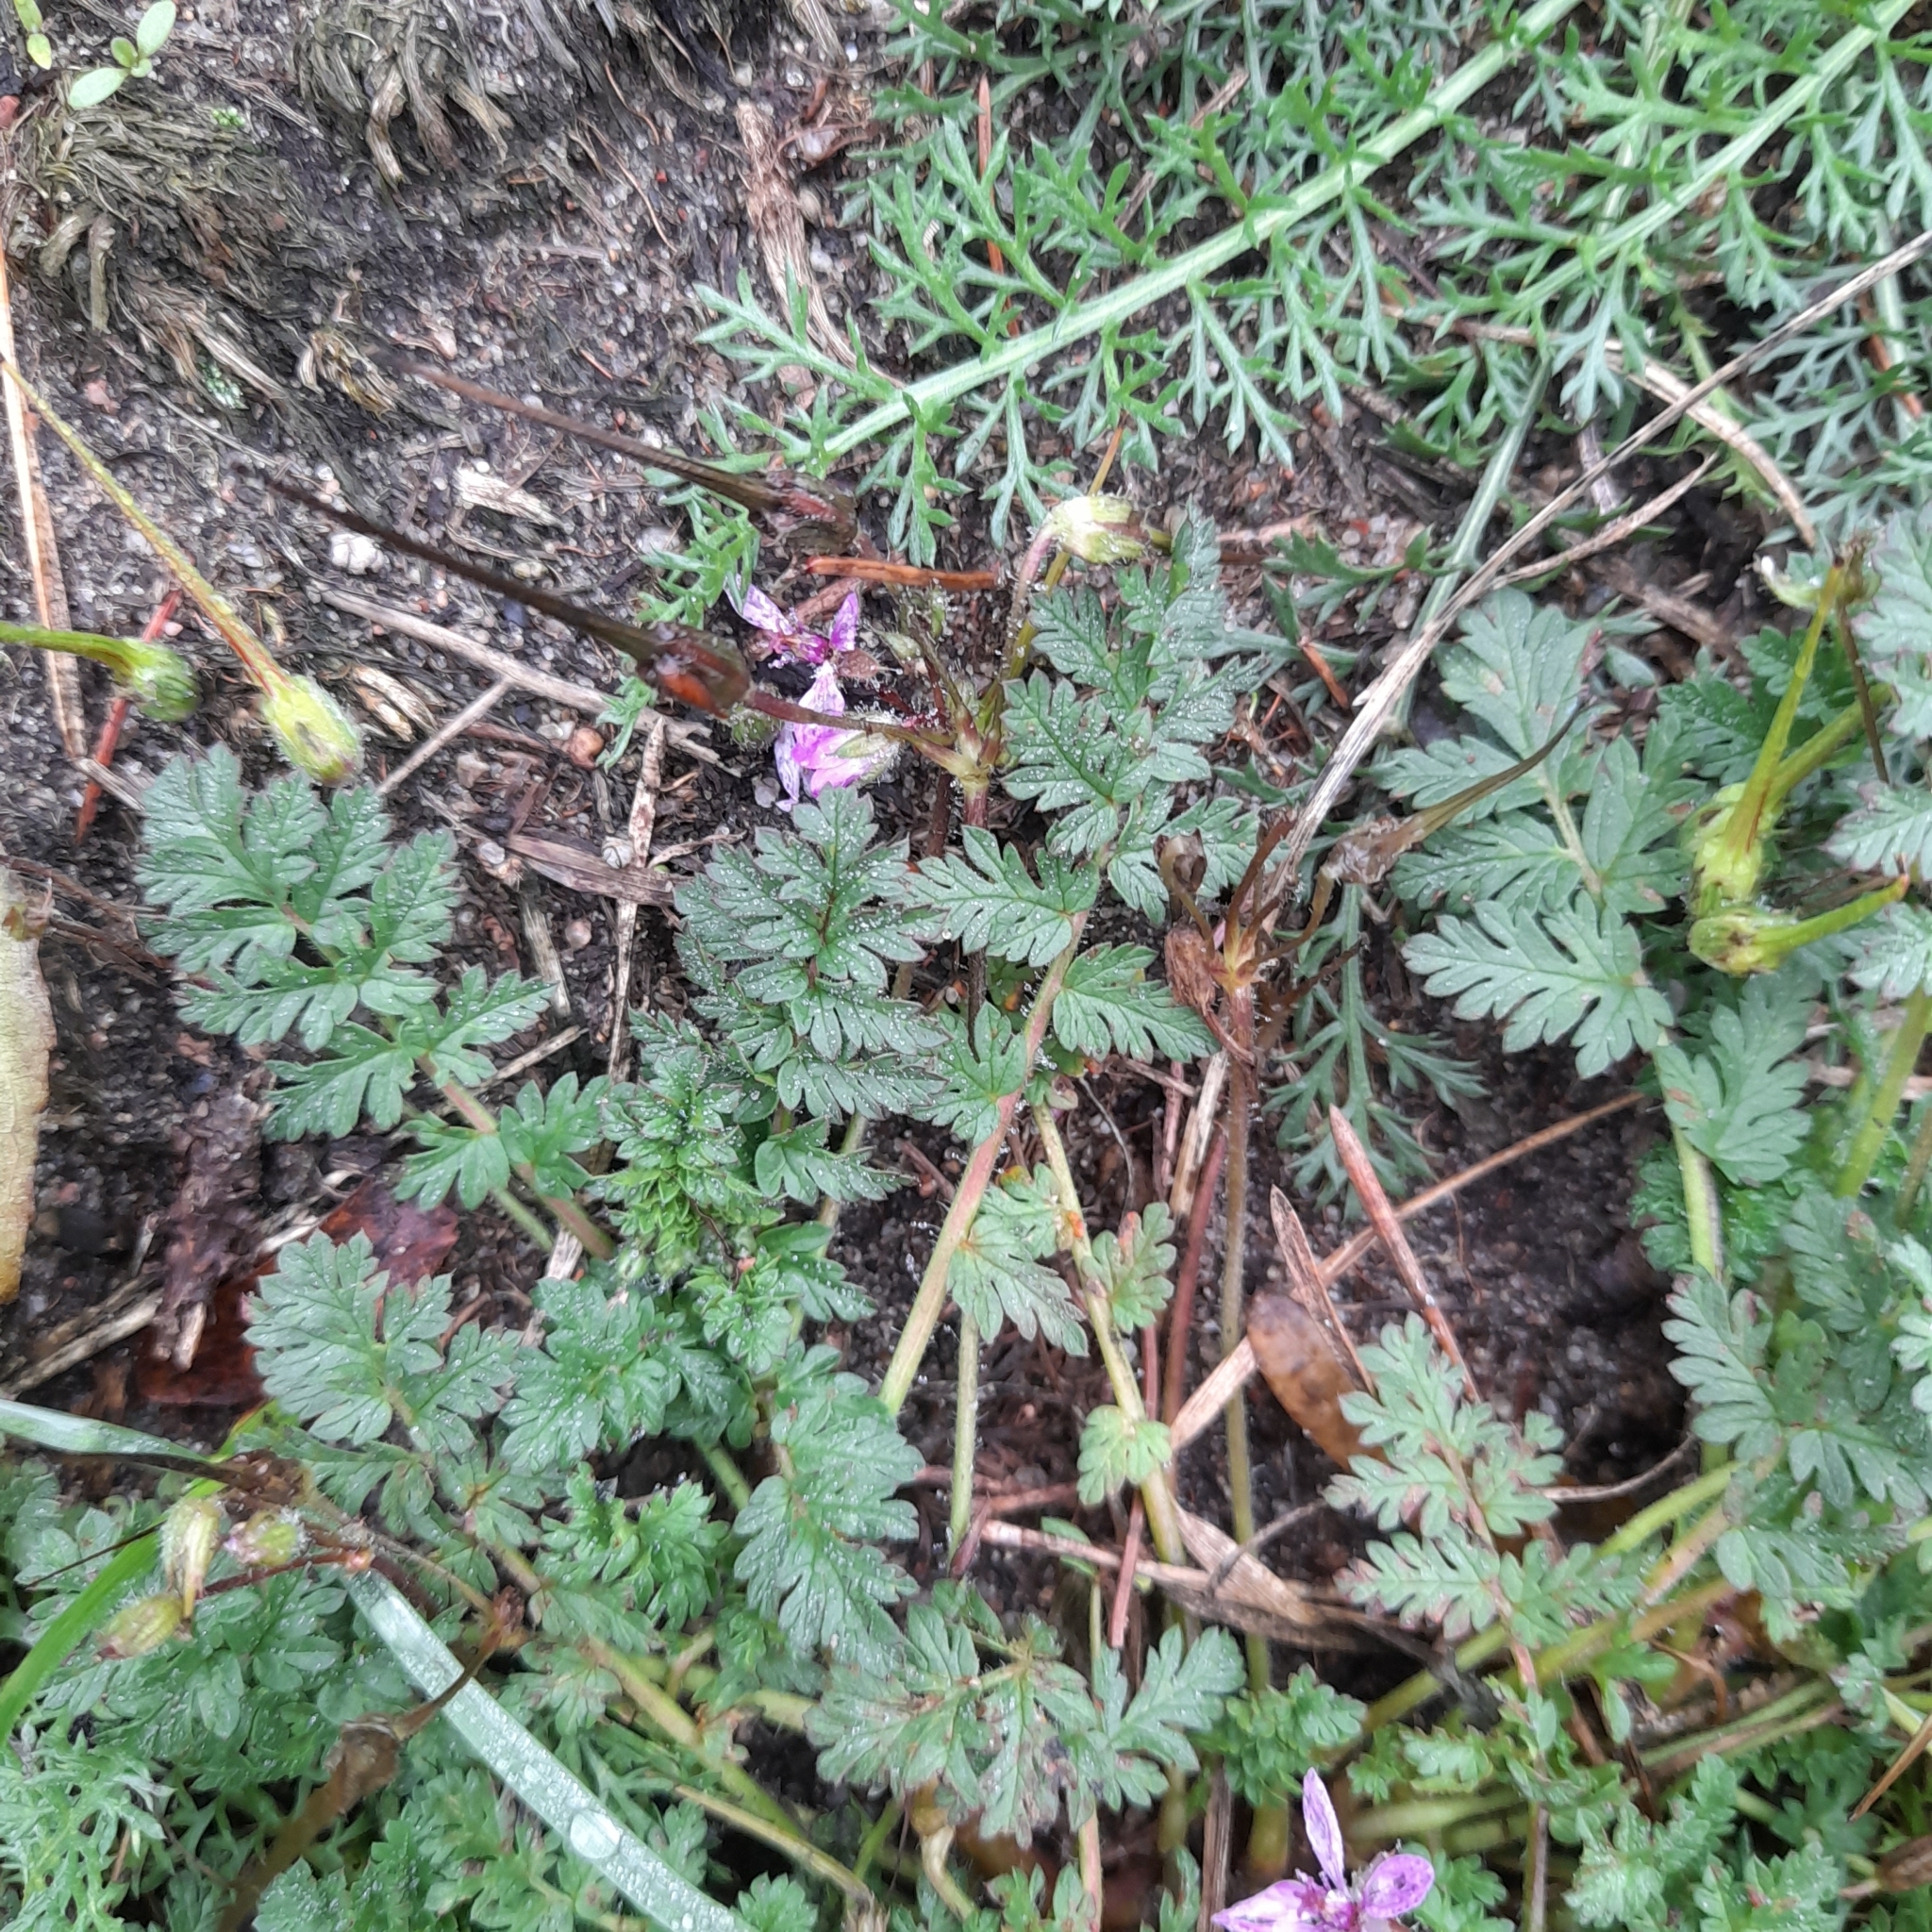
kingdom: Plantae
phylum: Tracheophyta
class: Magnoliopsida
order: Geraniales
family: Geraniaceae
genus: Erodium
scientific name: Erodium cicutarium
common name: Common stork's-bill
